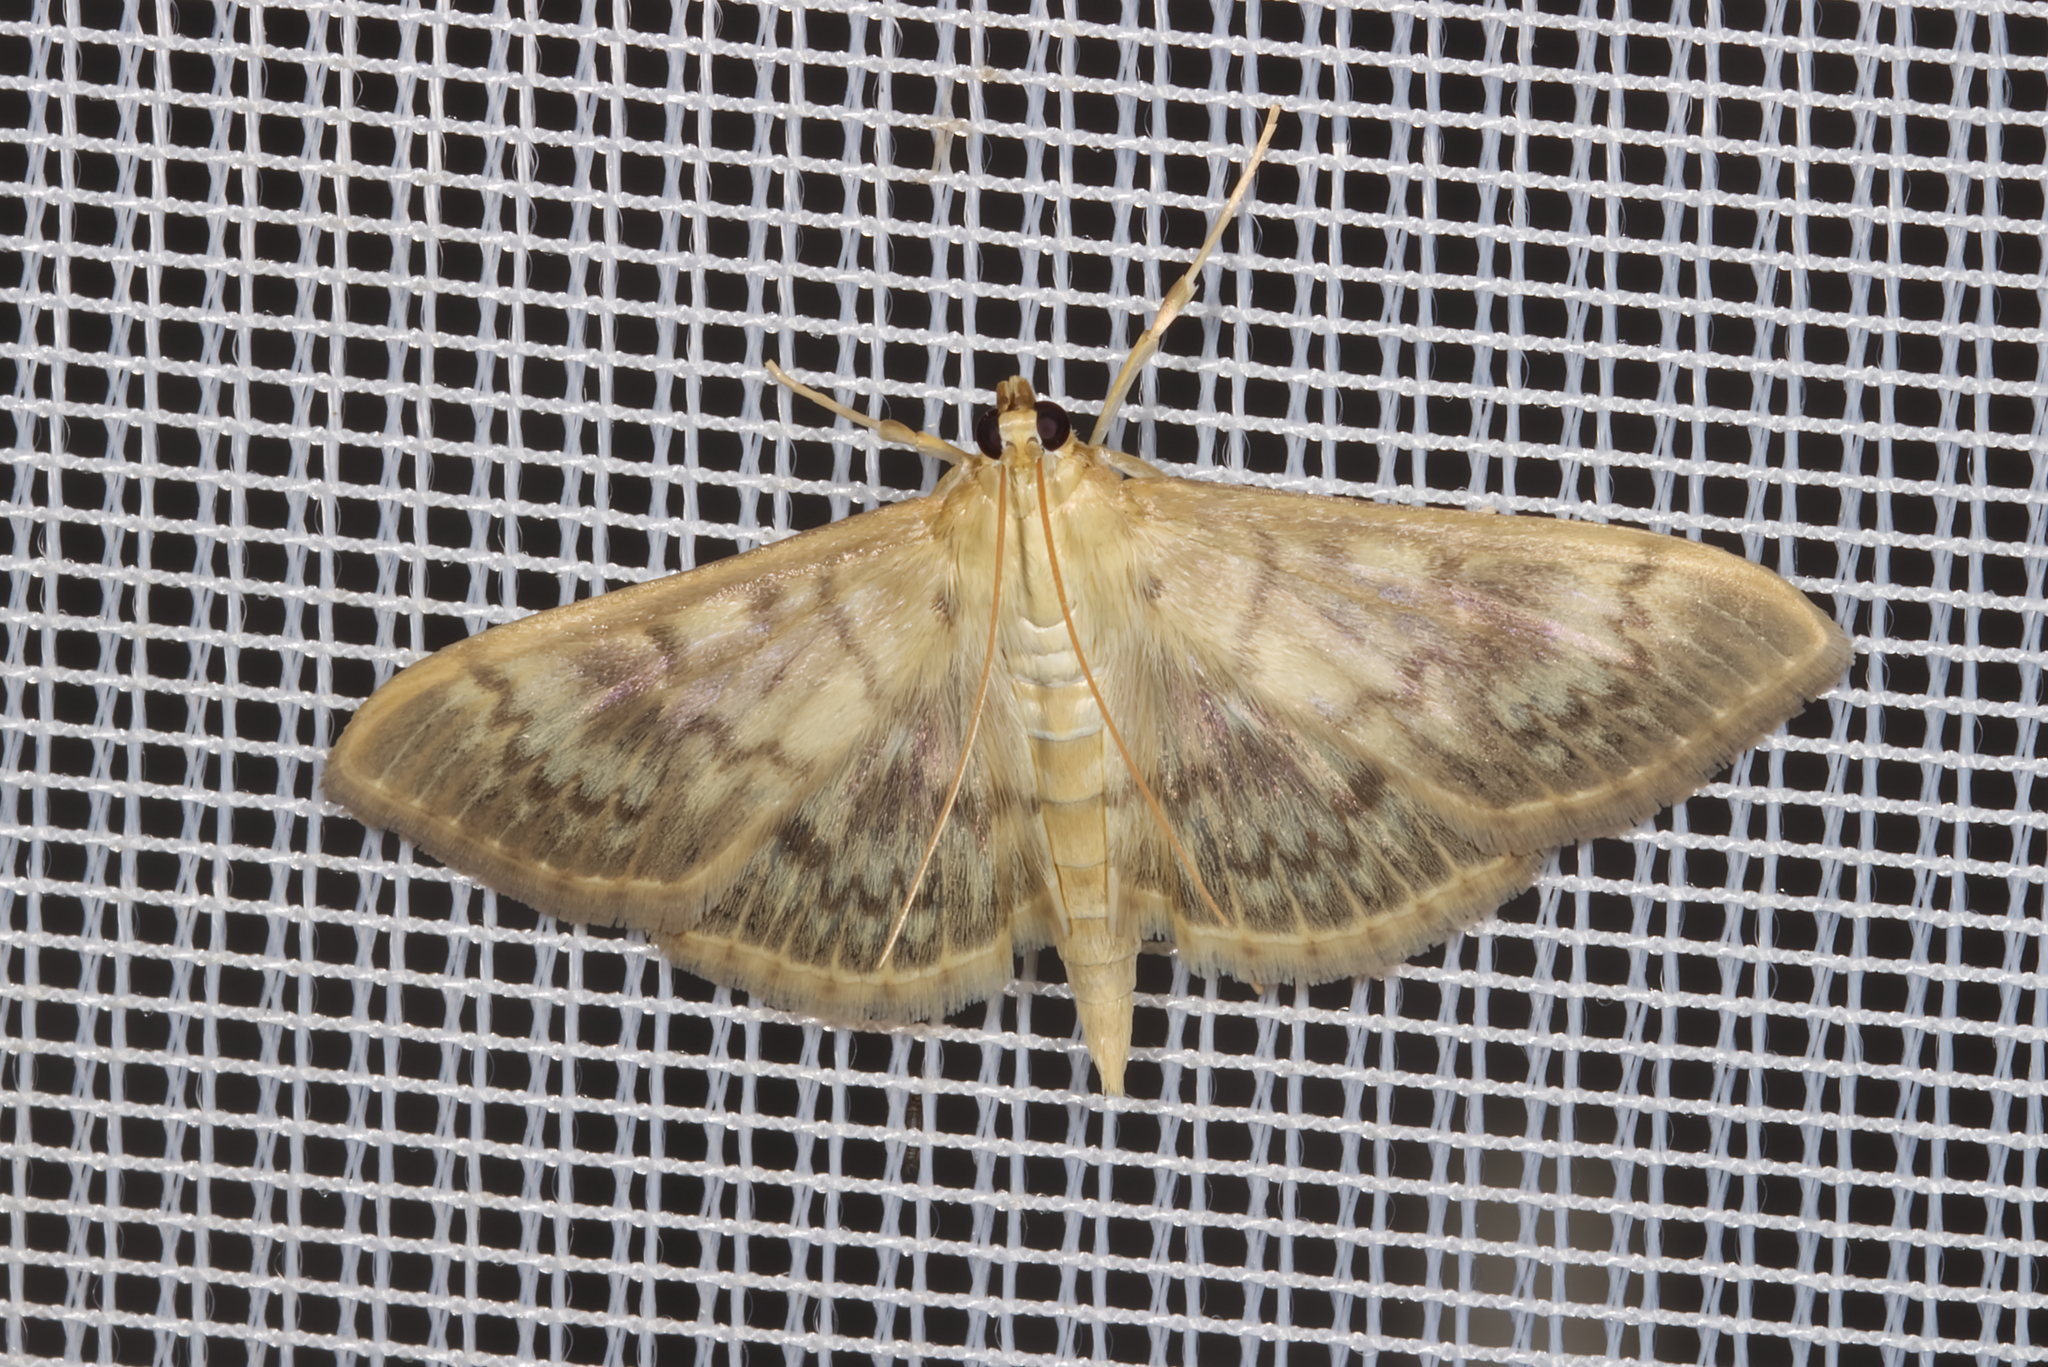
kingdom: Animalia
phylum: Arthropoda
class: Insecta
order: Lepidoptera
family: Crambidae
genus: Patania
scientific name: Patania ruralis
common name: Mother of pearl
